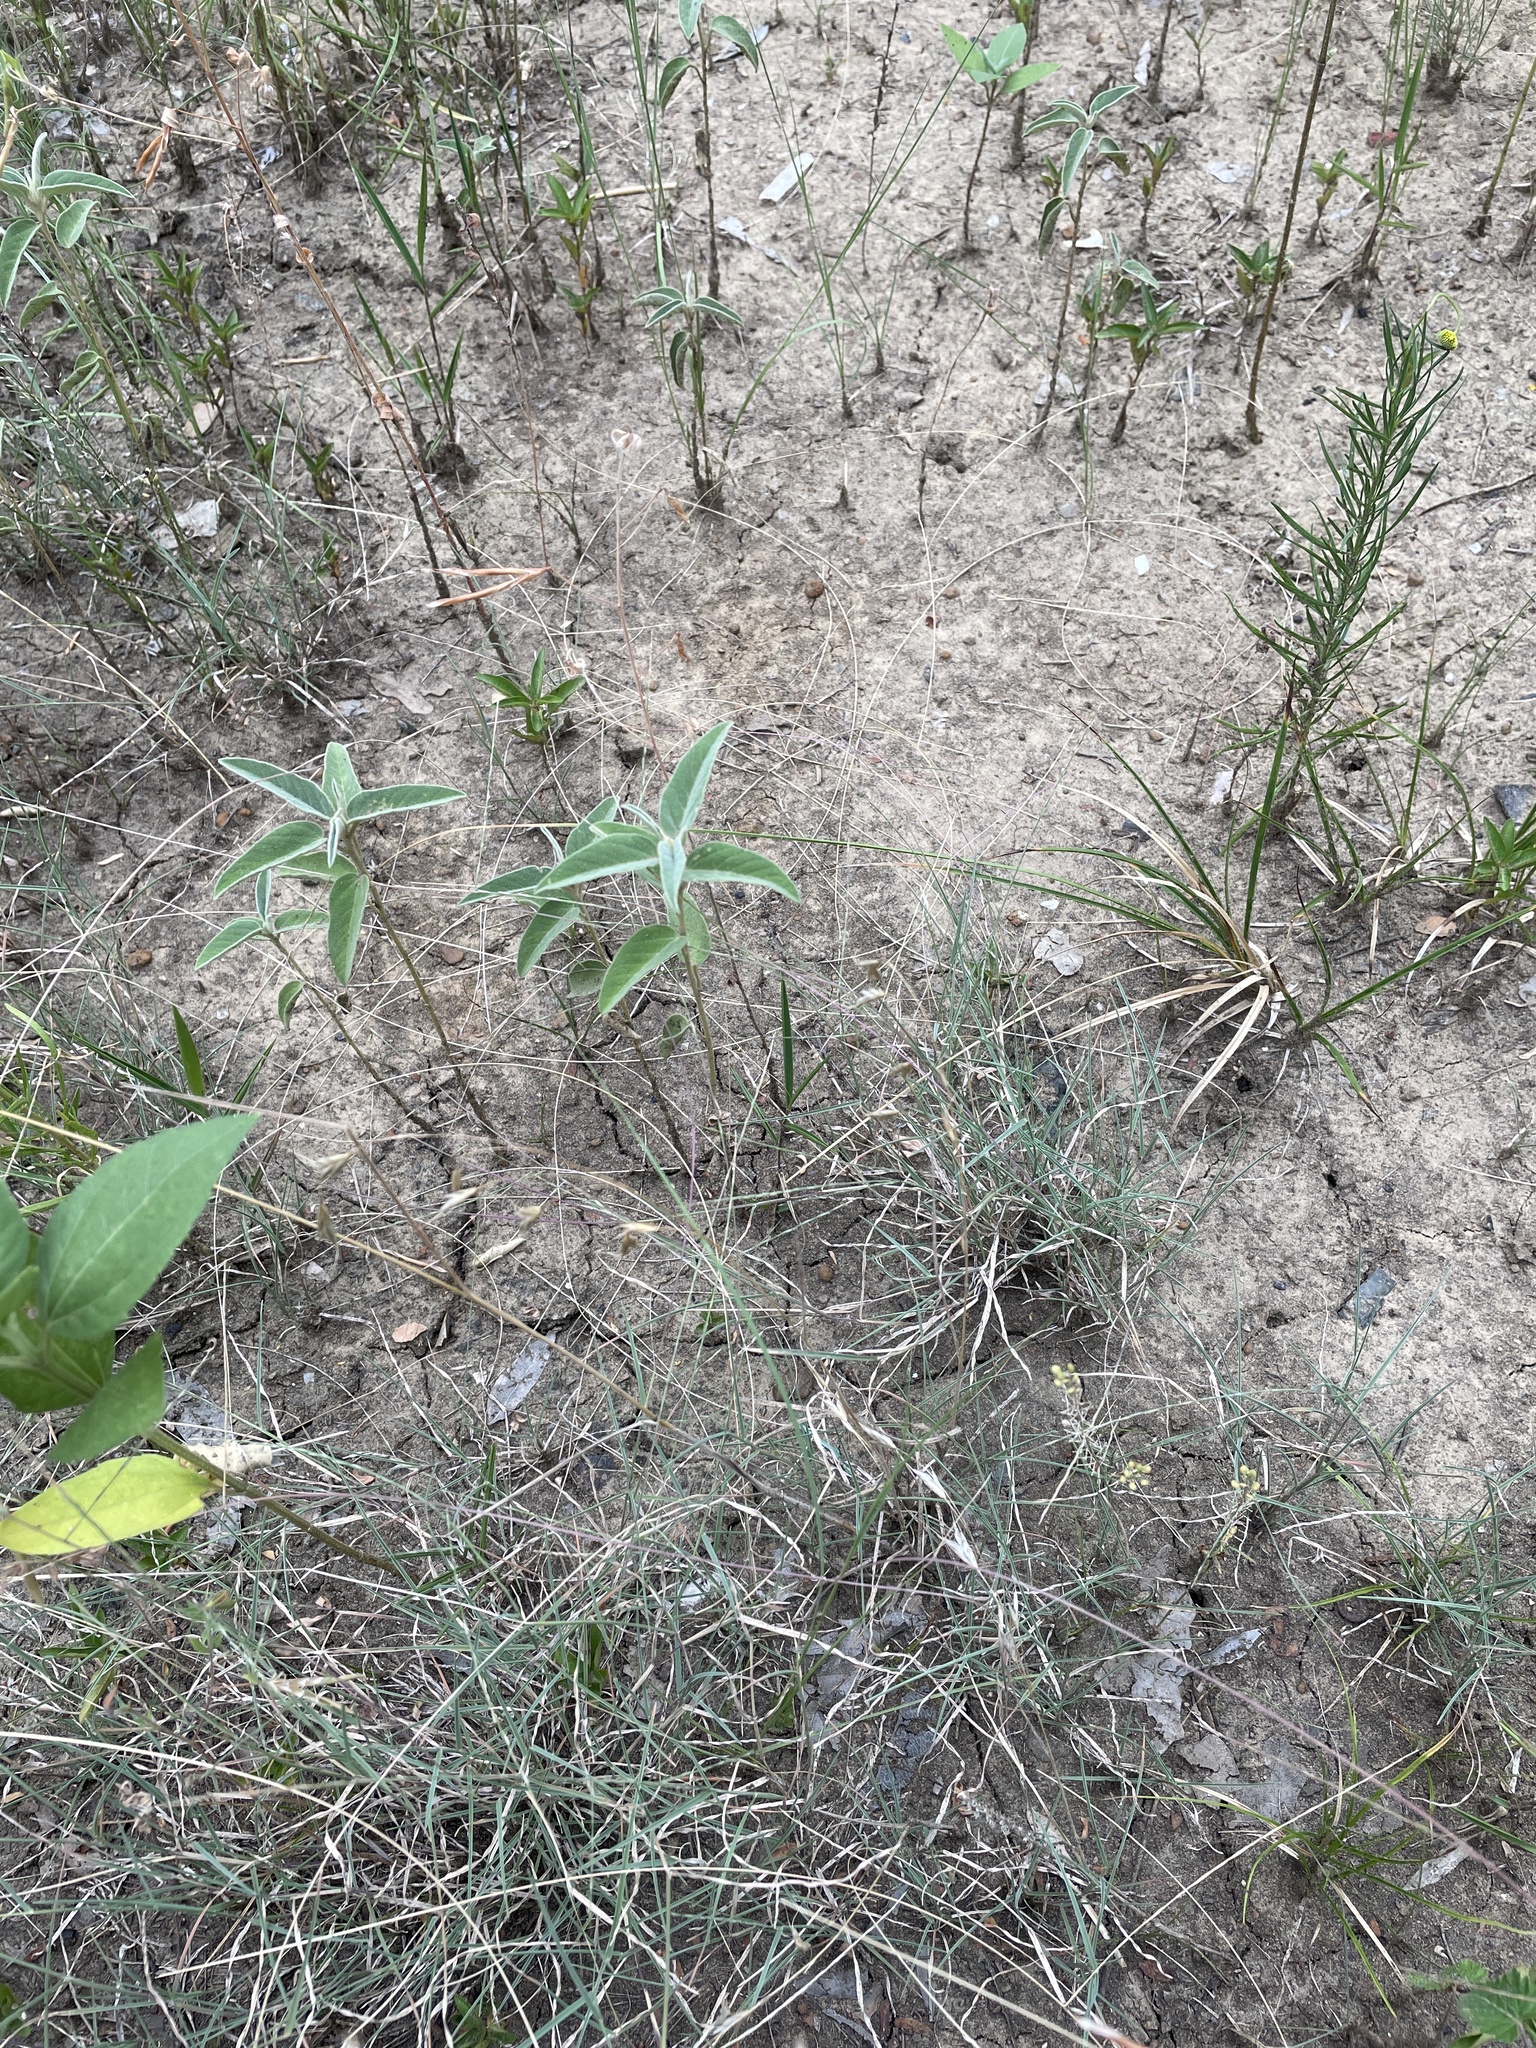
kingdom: Plantae
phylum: Tracheophyta
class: Liliopsida
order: Poales
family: Poaceae
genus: Muhlenbergia
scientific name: Muhlenbergia paniculata
